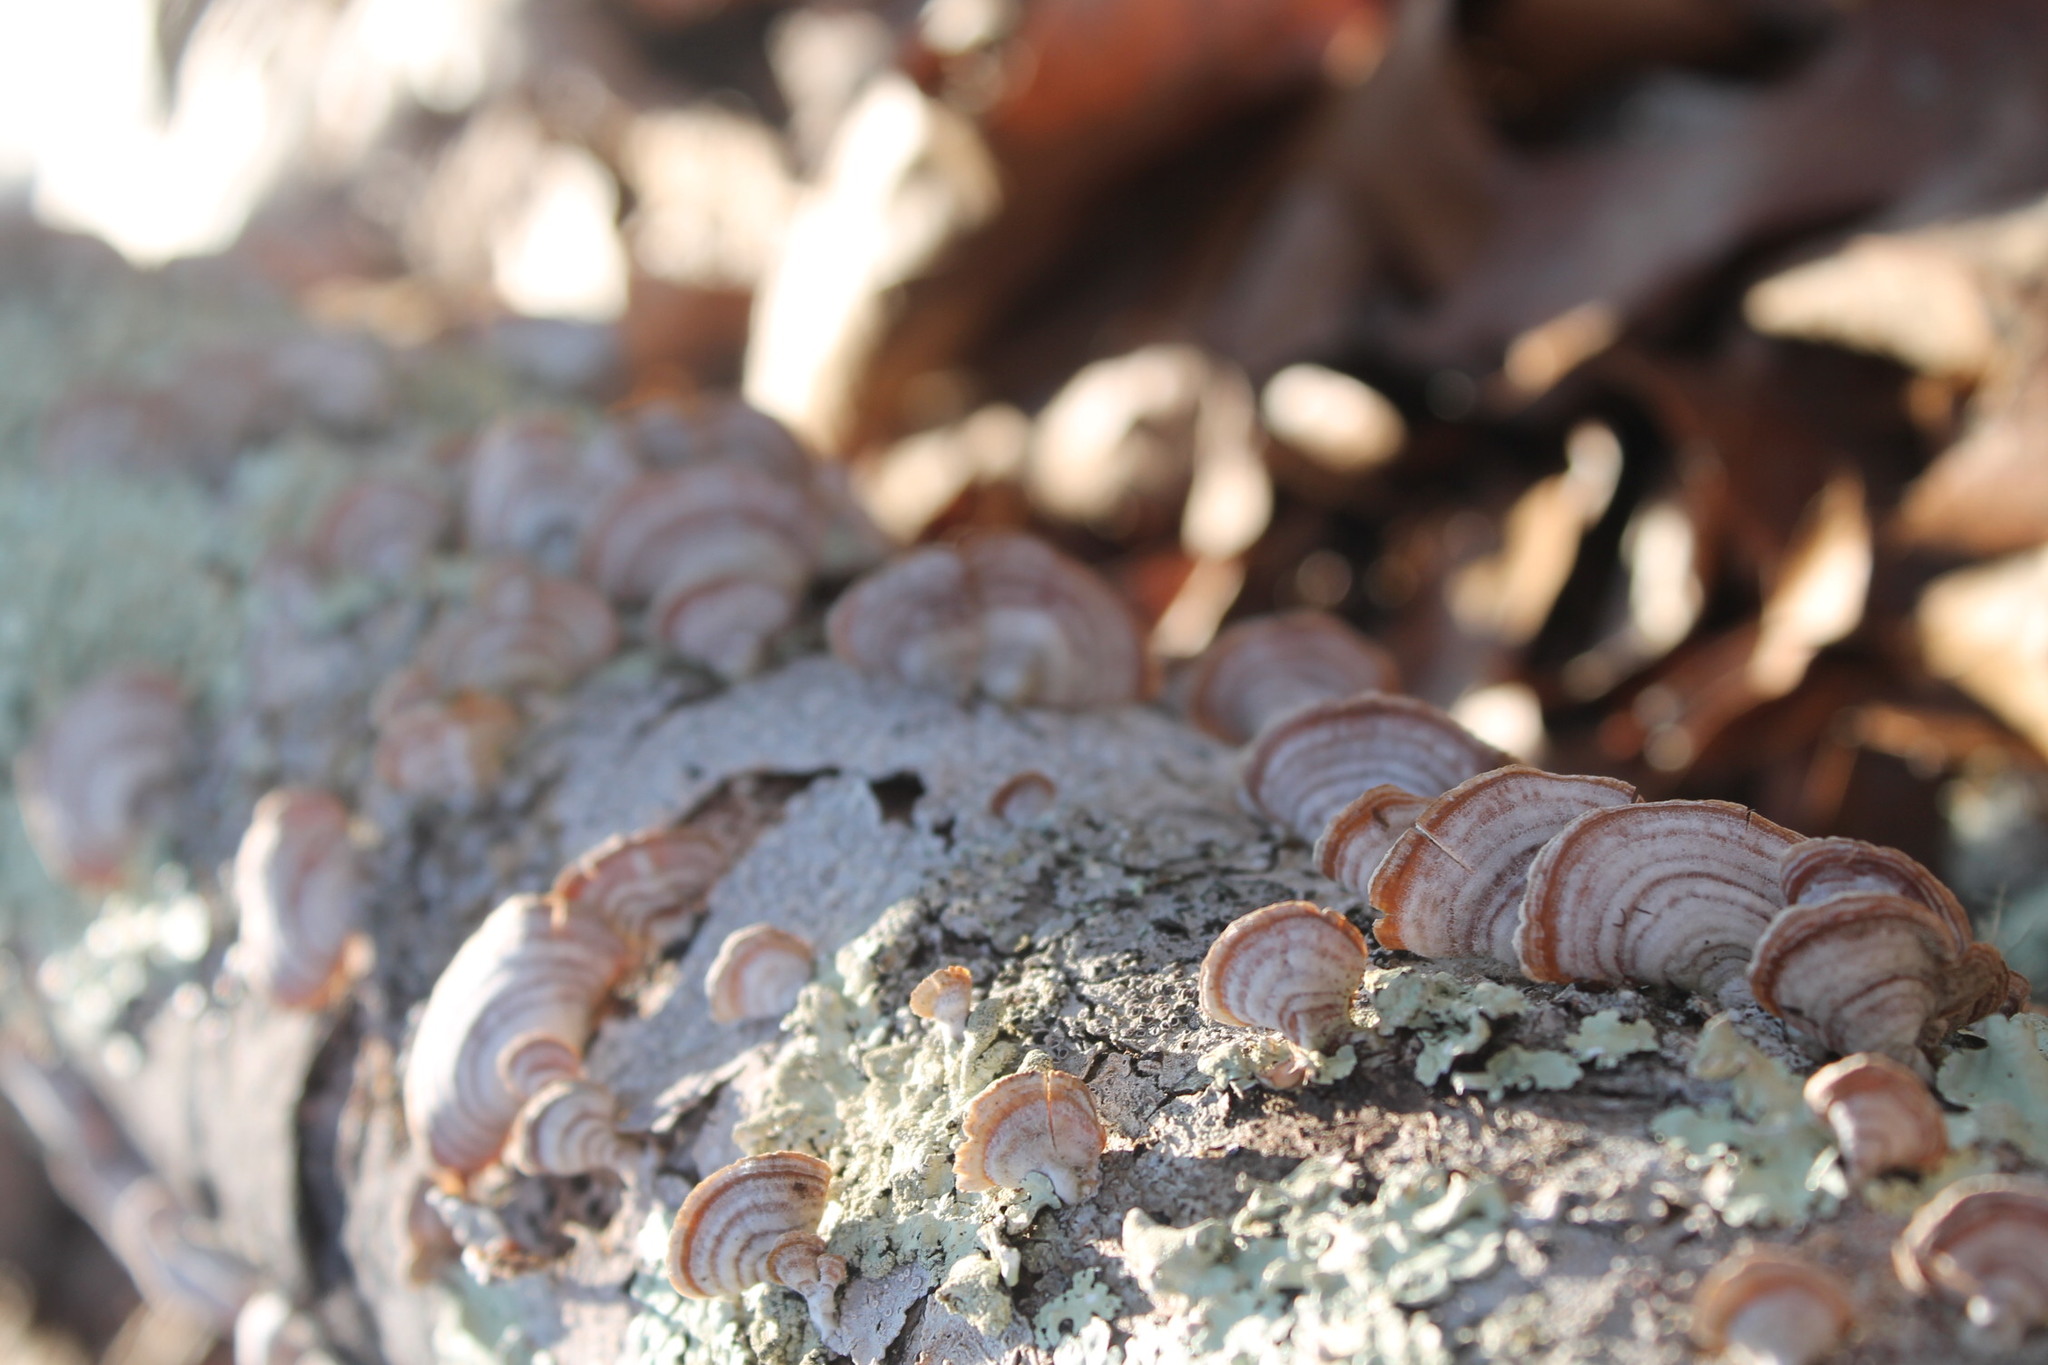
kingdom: Fungi
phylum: Basidiomycota
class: Agaricomycetes
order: Russulales
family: Stereaceae
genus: Stereum
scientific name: Stereum lobatum
